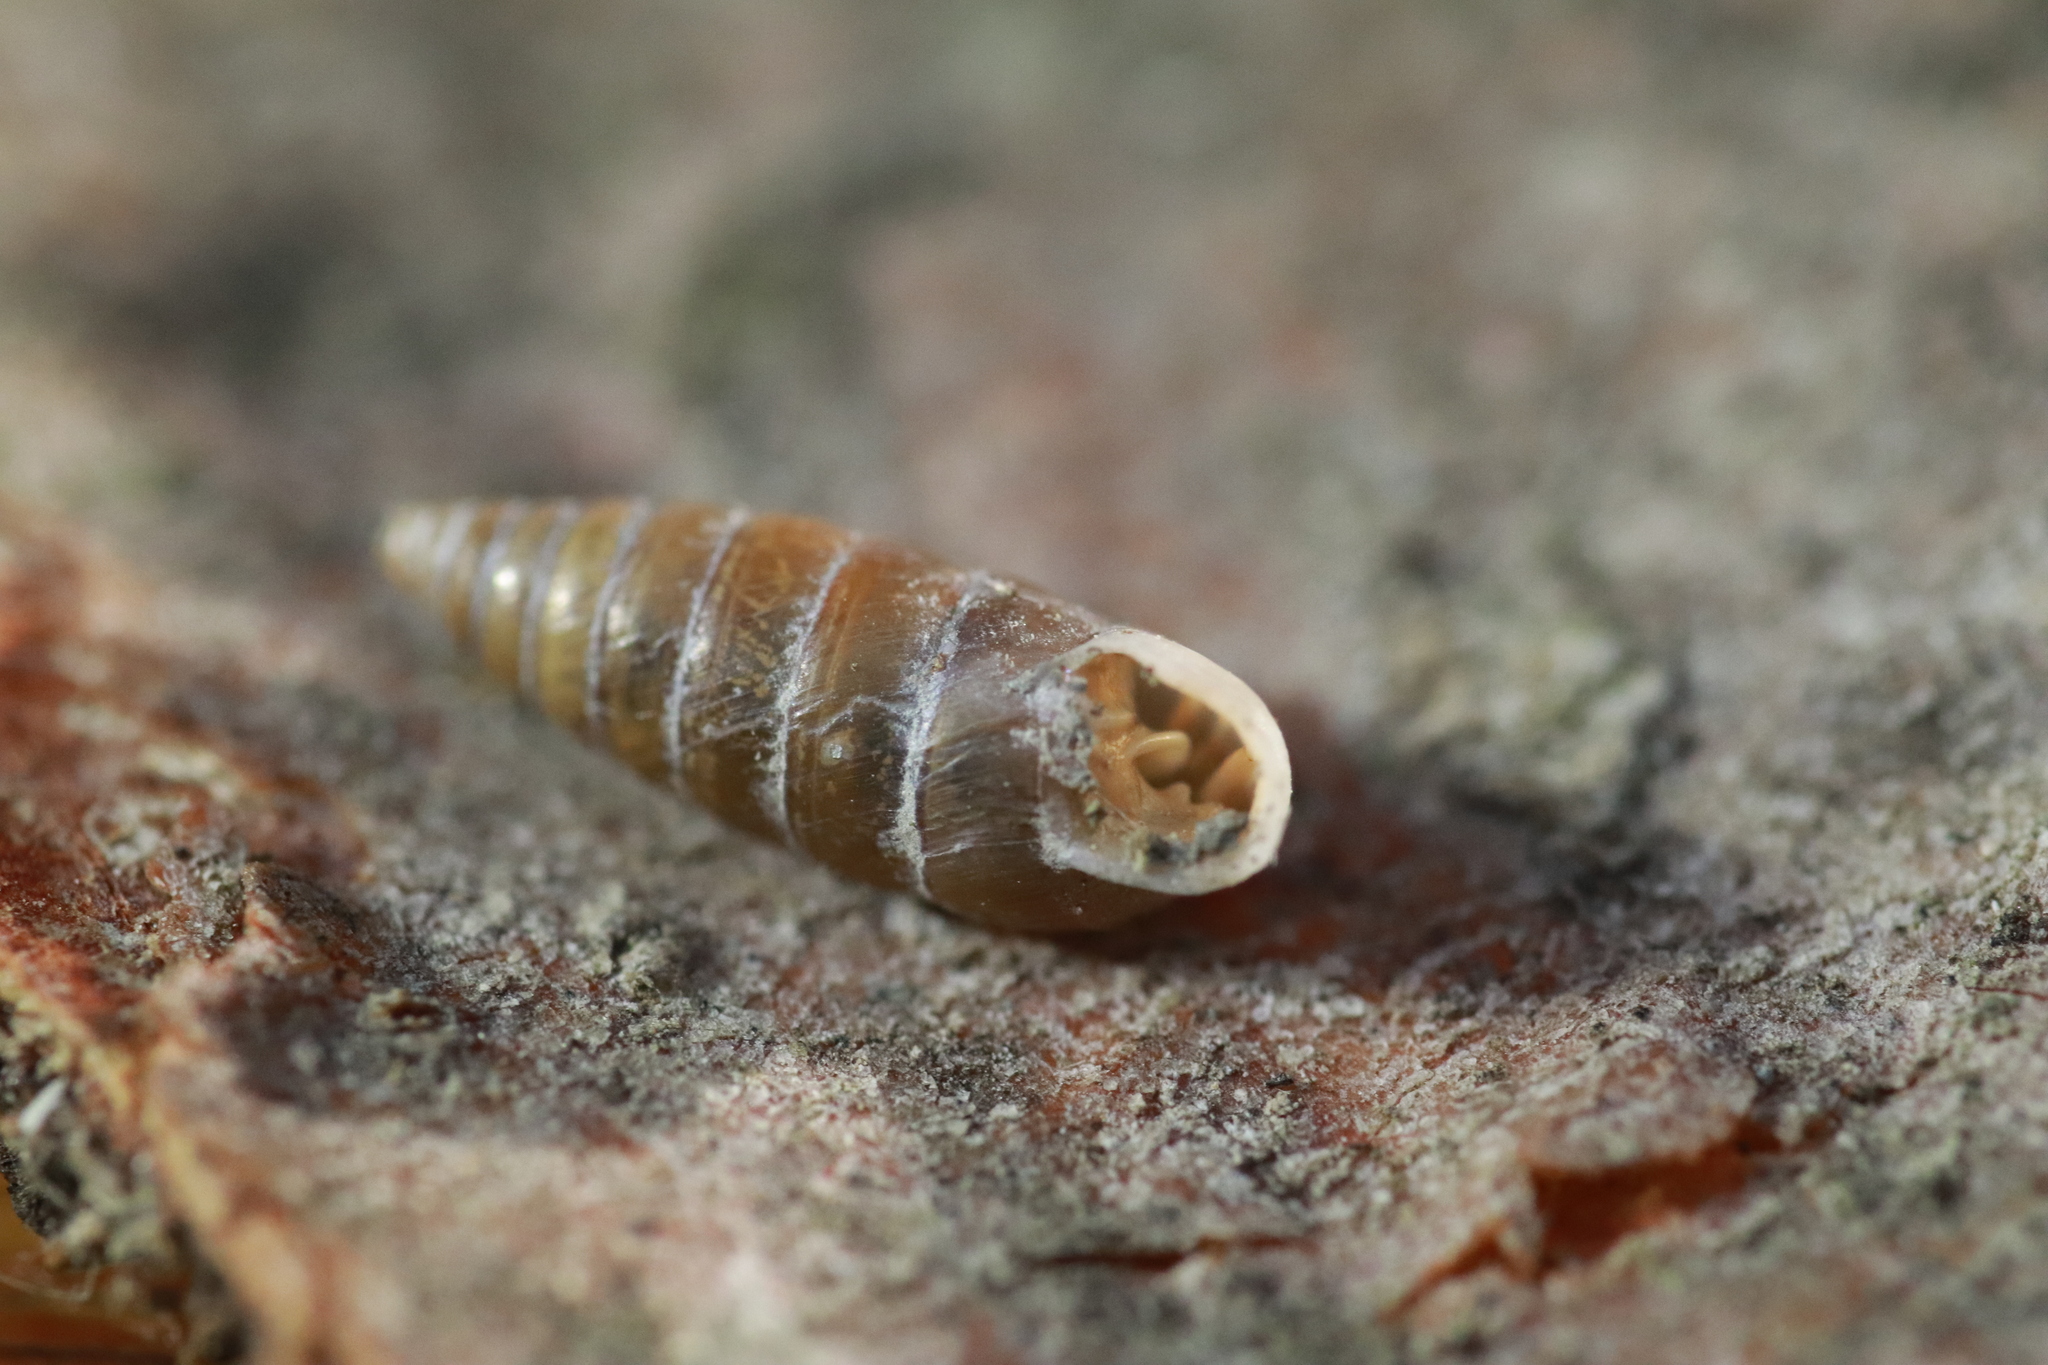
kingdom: Animalia
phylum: Mollusca
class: Gastropoda
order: Stylommatophora
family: Chondrinidae
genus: Granaria
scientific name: Granaria variabilis
